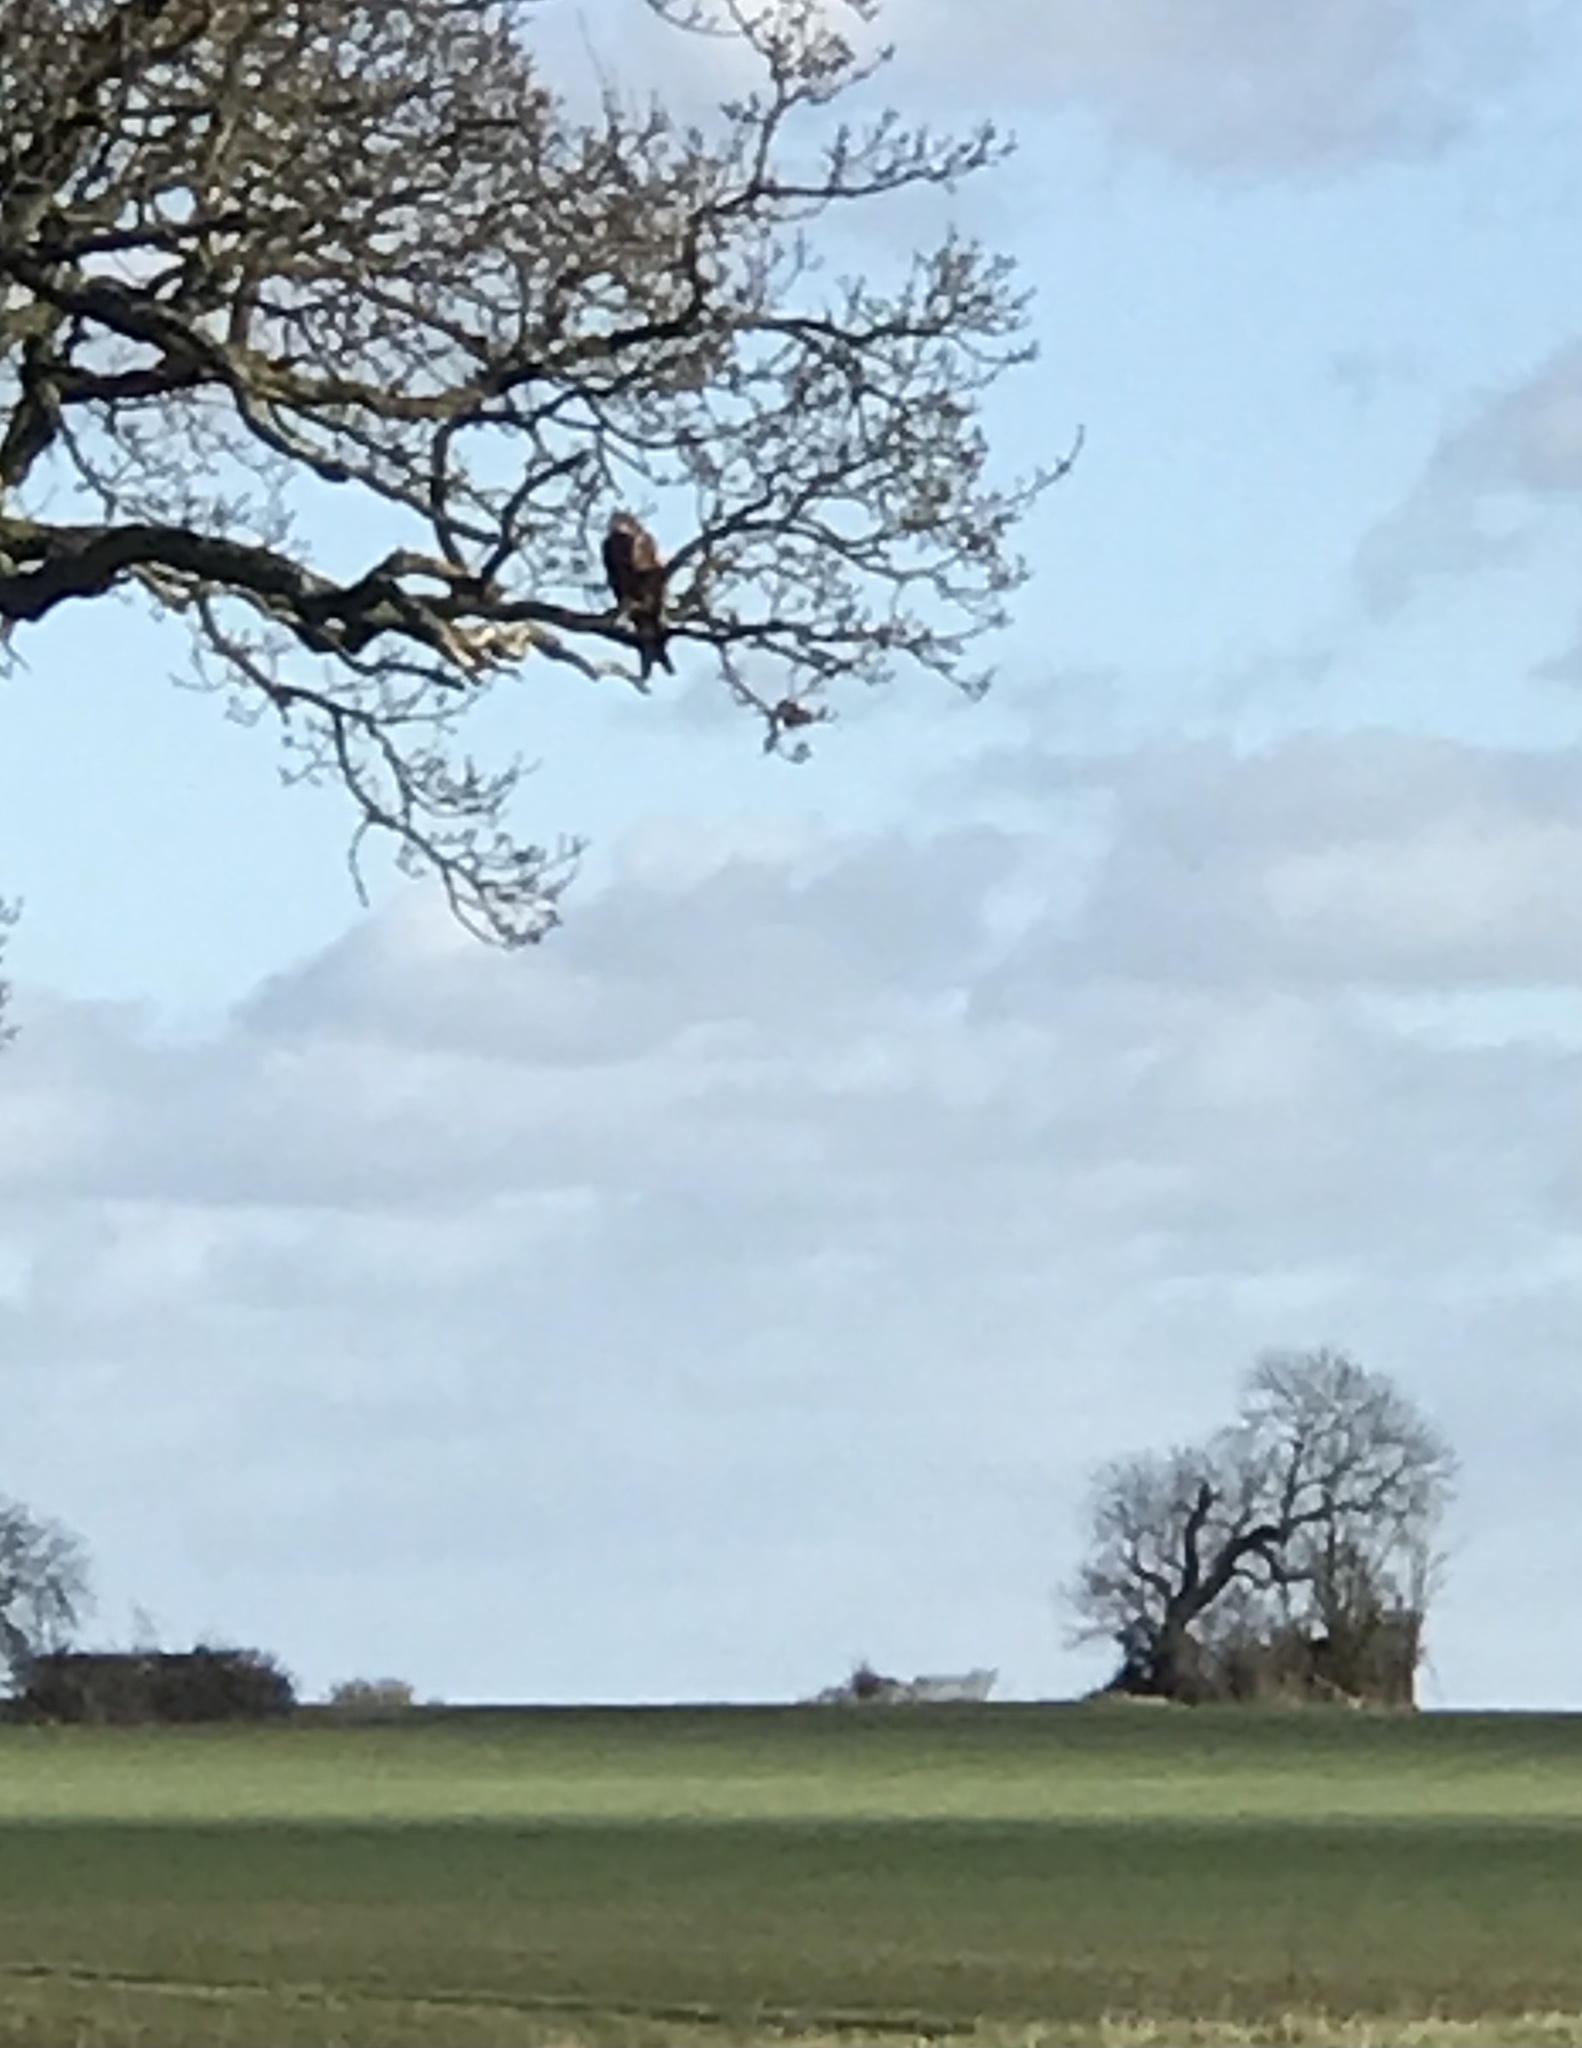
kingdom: Animalia
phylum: Chordata
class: Aves
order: Accipitriformes
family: Accipitridae
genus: Milvus
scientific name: Milvus milvus
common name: Red kite
